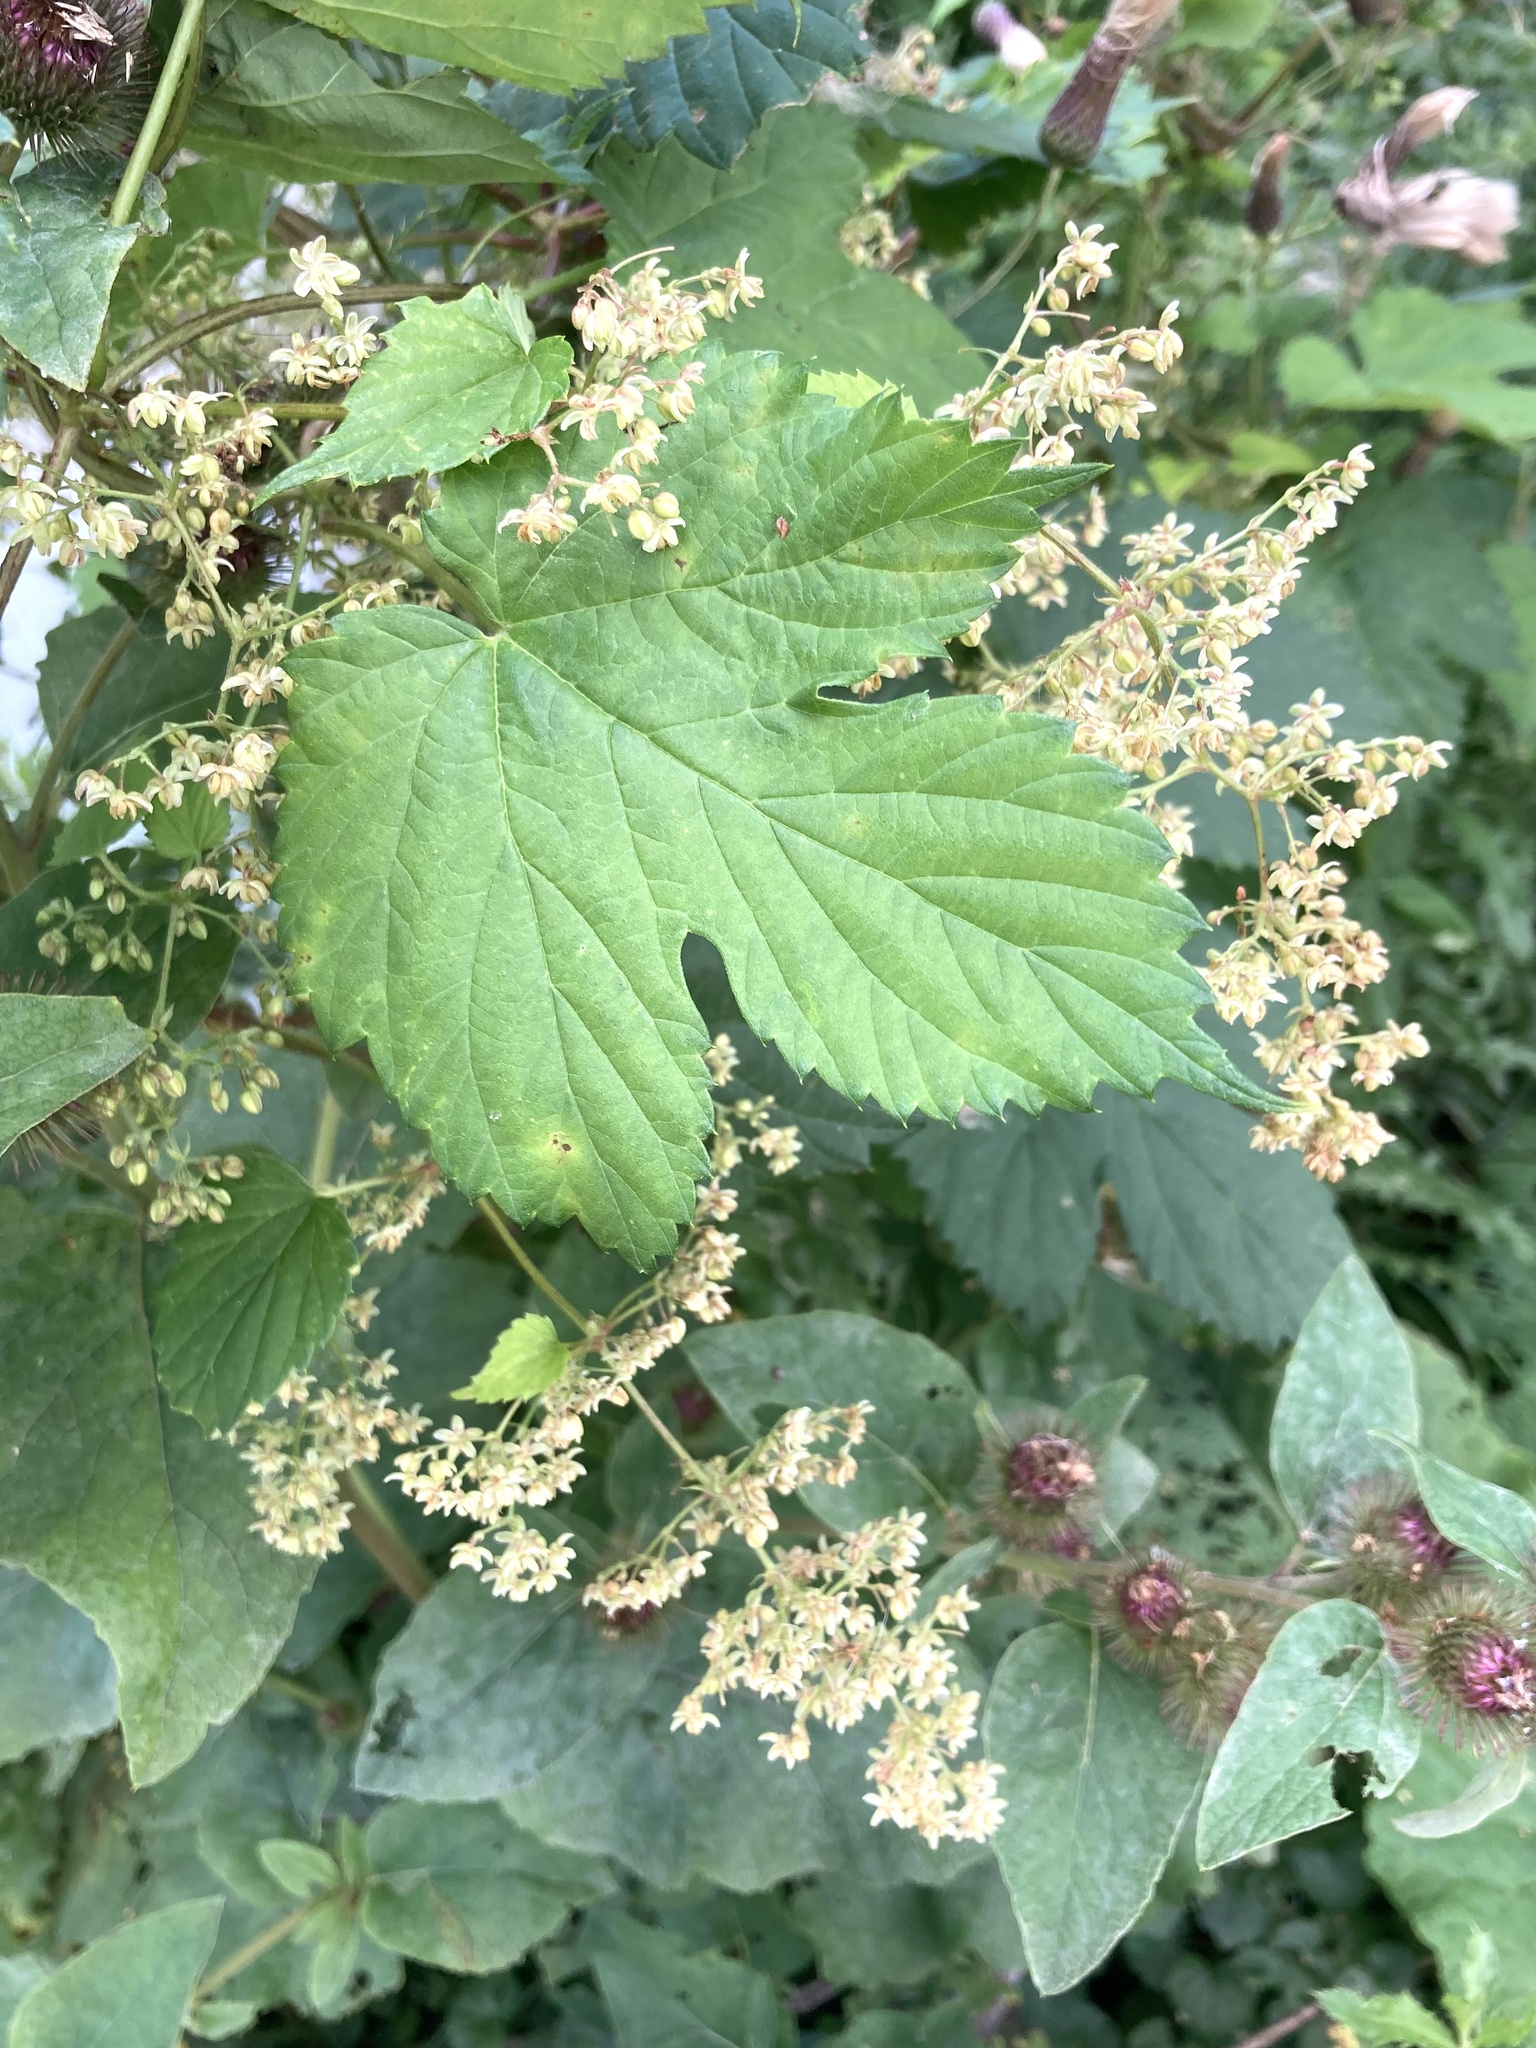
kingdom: Plantae
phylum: Tracheophyta
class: Magnoliopsida
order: Rosales
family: Cannabaceae
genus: Humulus
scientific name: Humulus lupulus
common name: Hop
